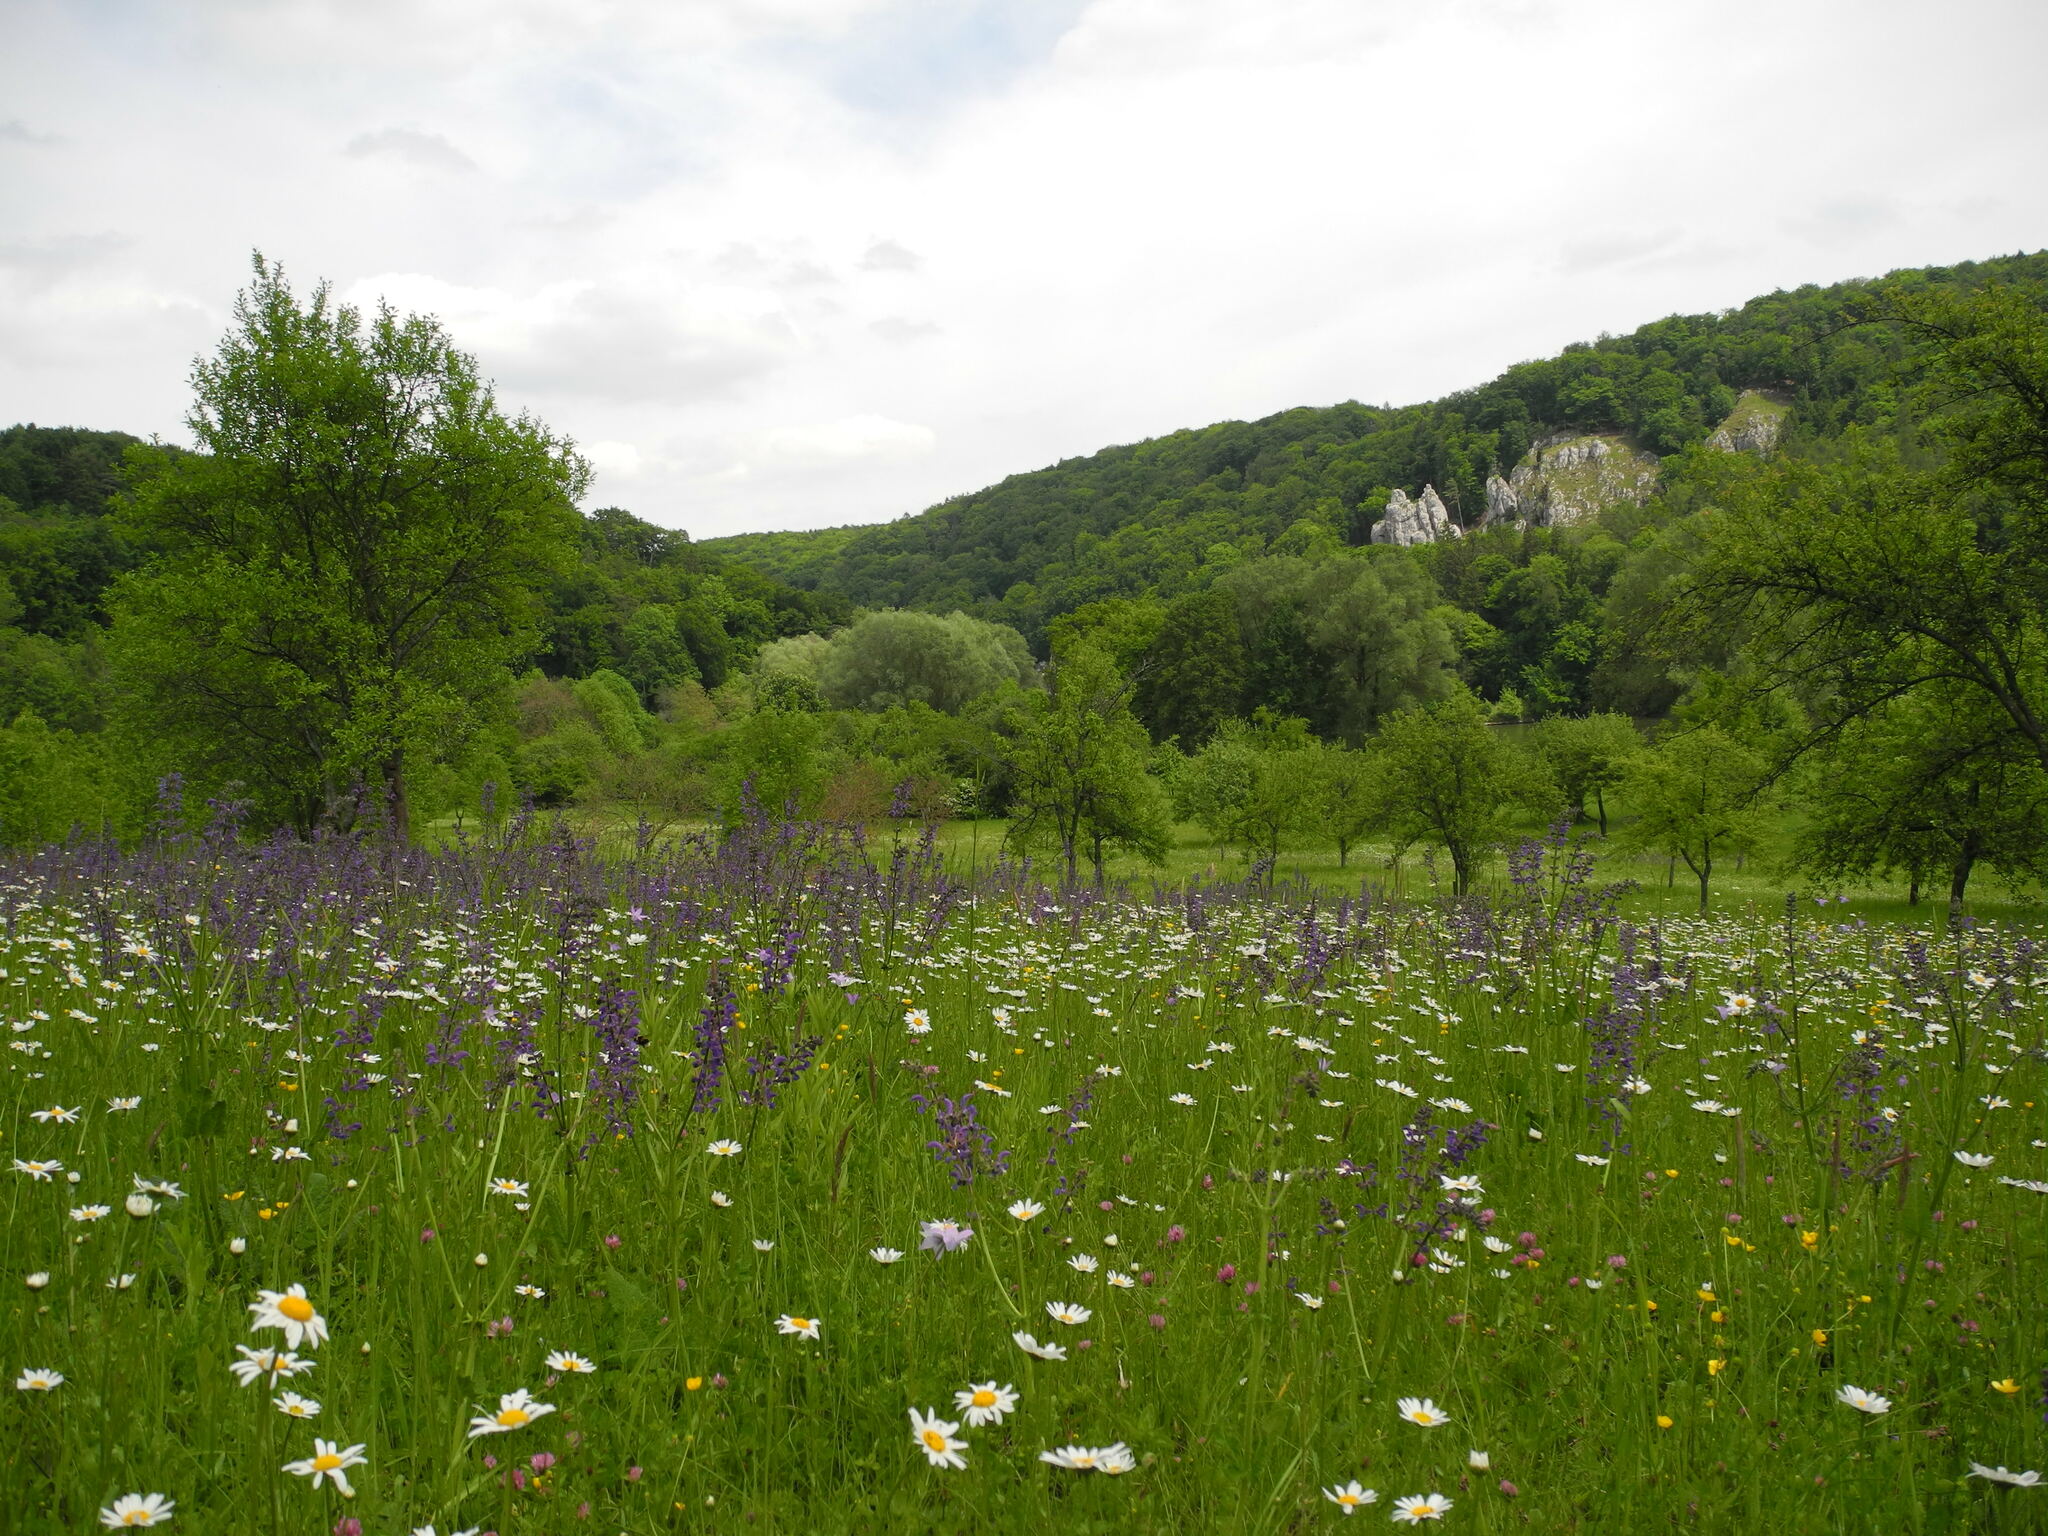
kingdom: Plantae
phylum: Tracheophyta
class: Magnoliopsida
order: Lamiales
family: Lamiaceae
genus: Salvia
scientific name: Salvia pratensis
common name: Meadow sage
